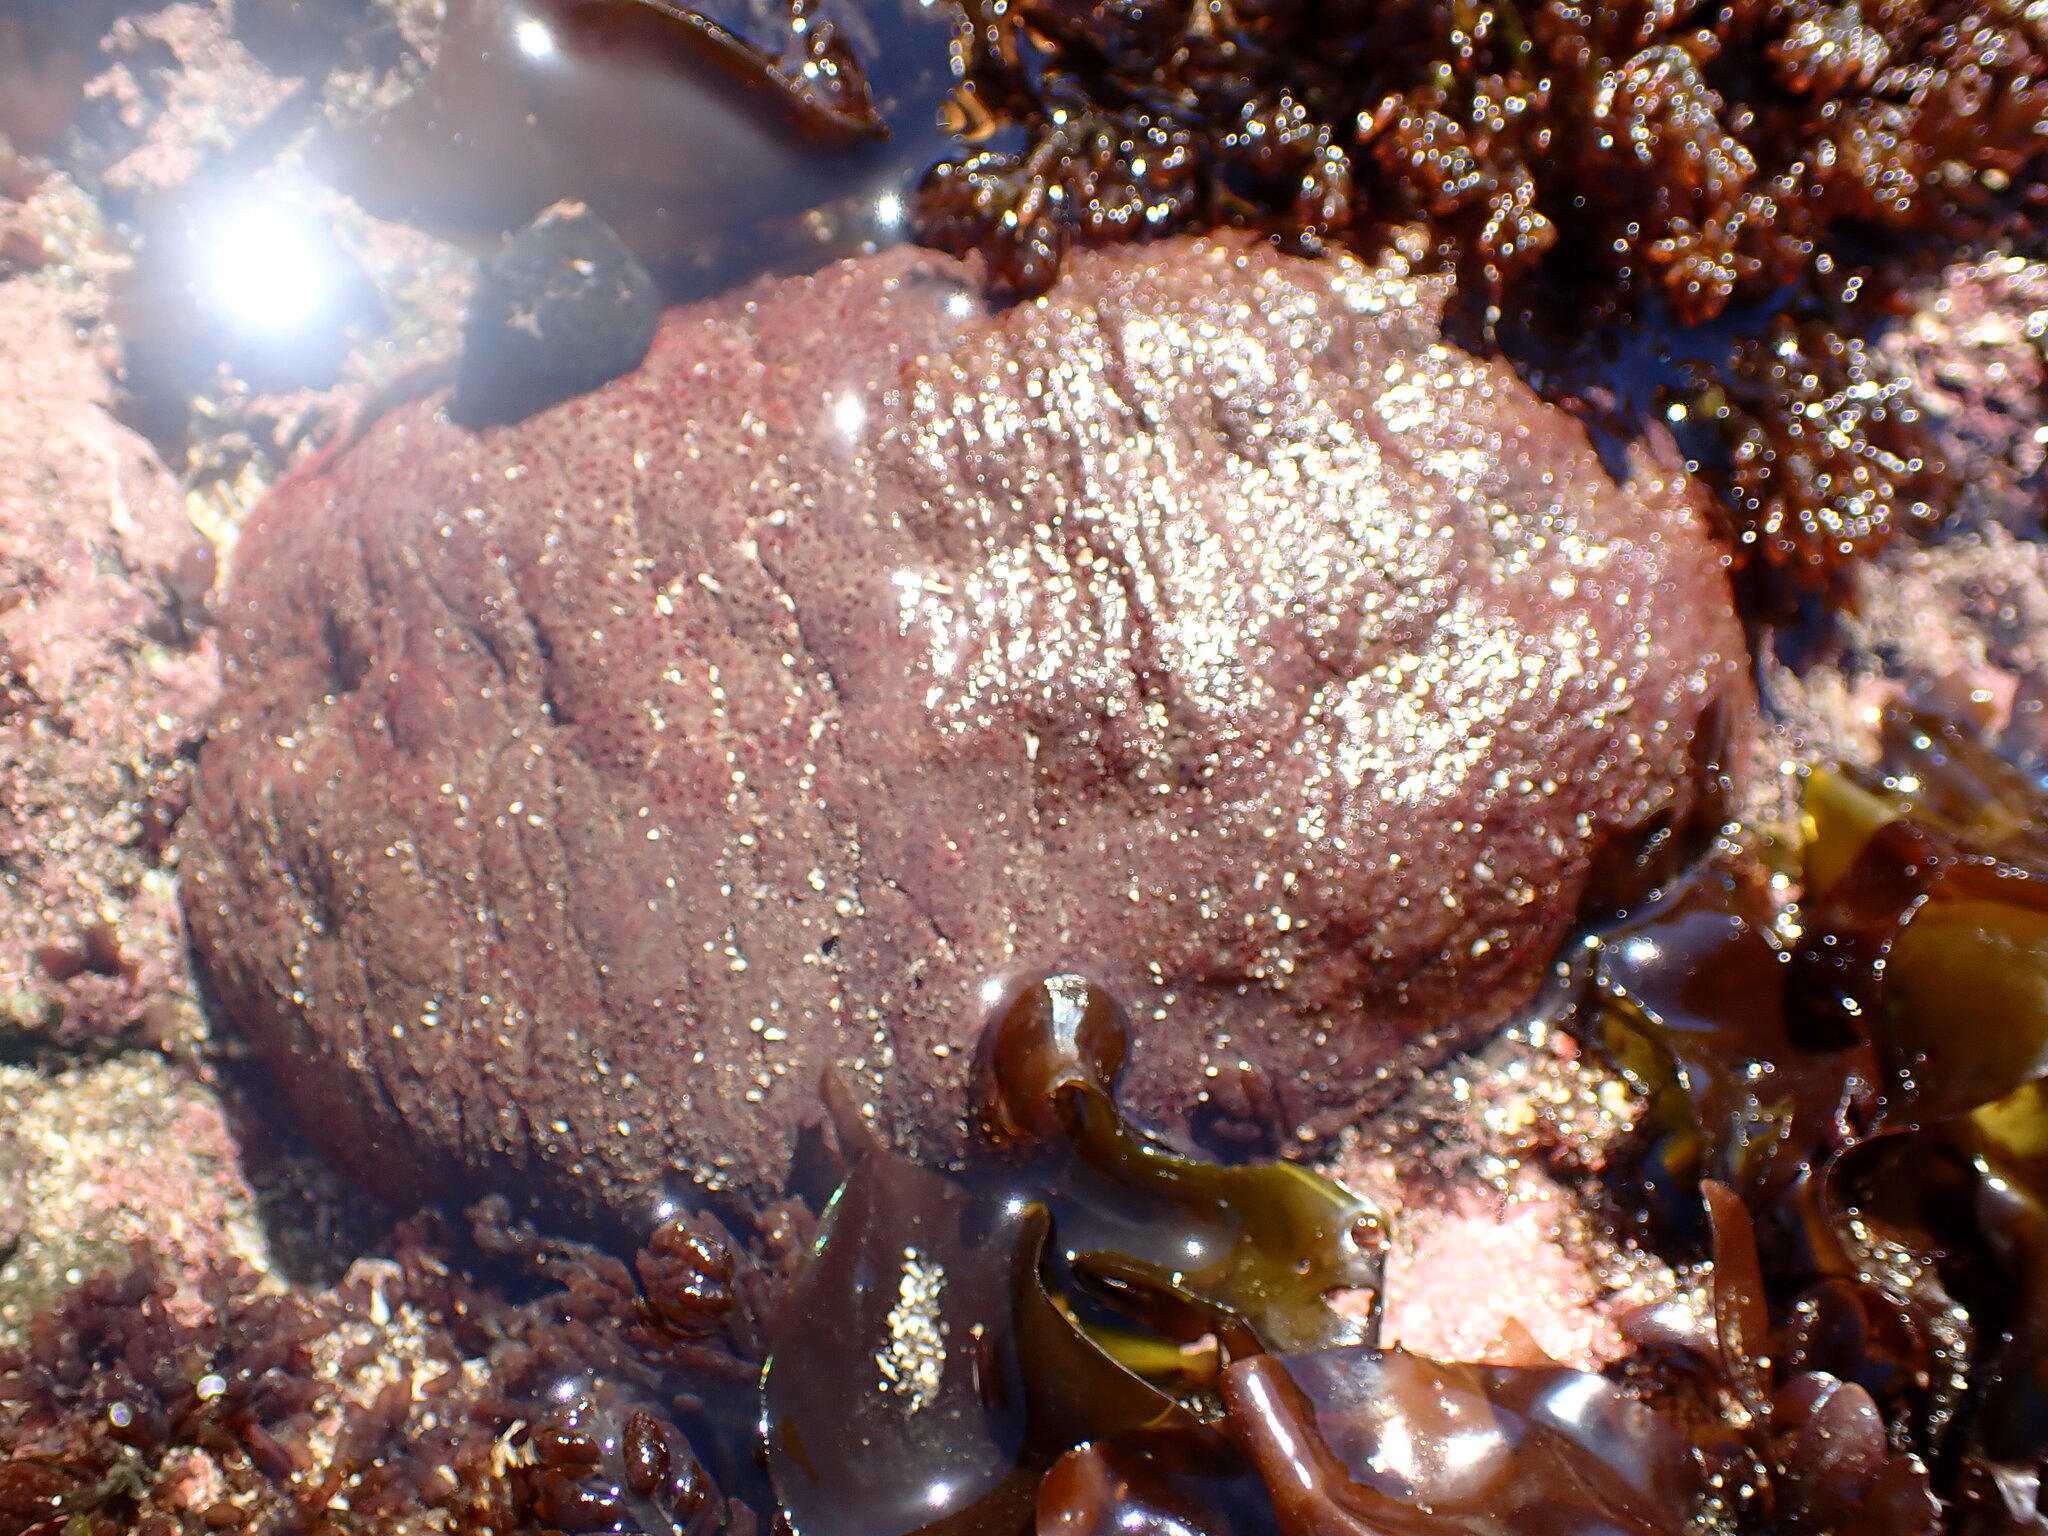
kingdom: Animalia
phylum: Mollusca
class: Polyplacophora
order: Chitonida
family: Acanthochitonidae
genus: Cryptochiton
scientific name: Cryptochiton stelleri
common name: Giant pacific chiton
